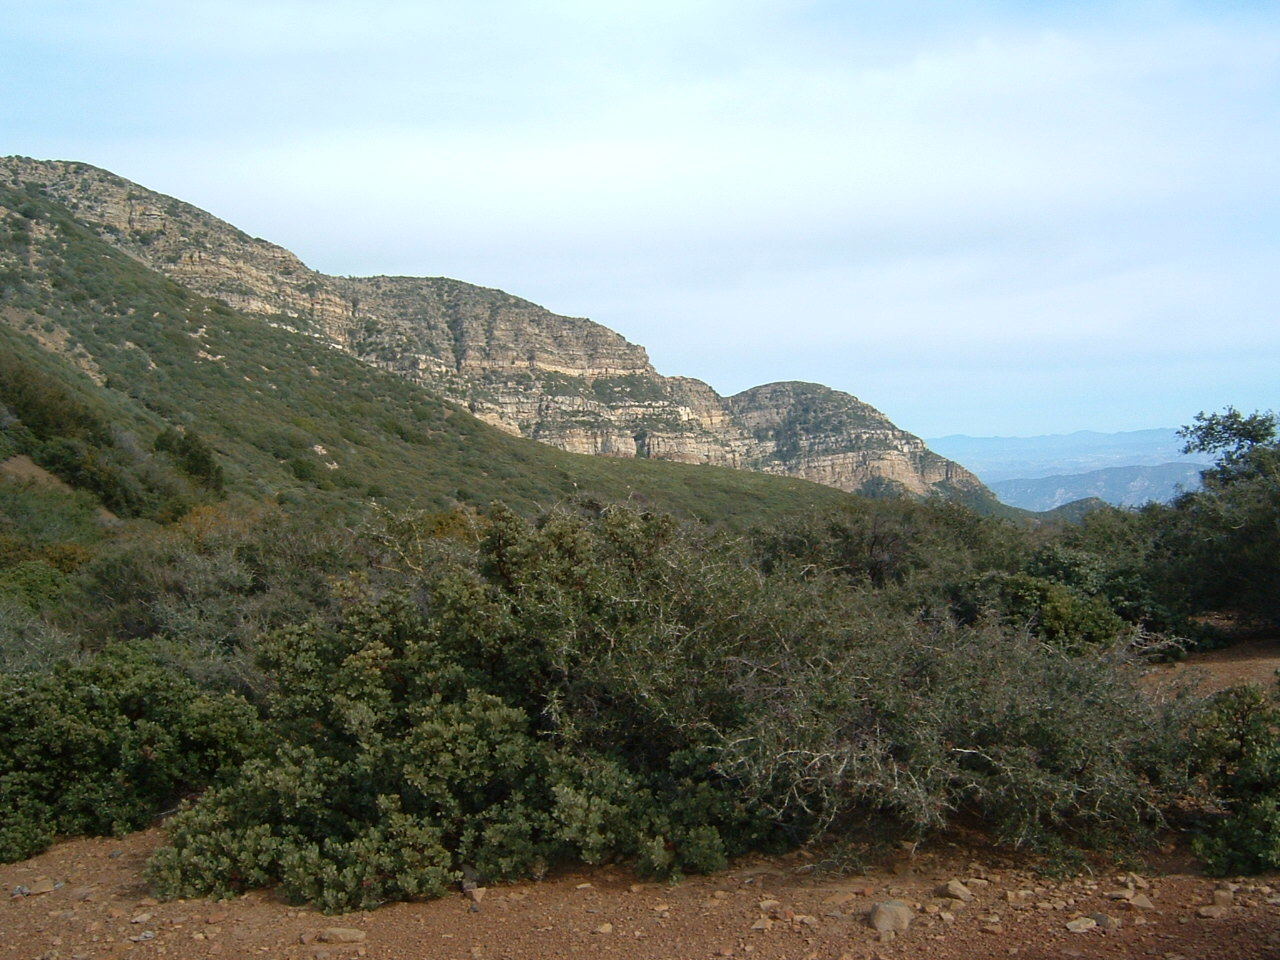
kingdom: Plantae
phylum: Tracheophyta
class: Magnoliopsida
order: Rosales
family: Rhamnaceae
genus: Ceanothus
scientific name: Ceanothus leucodermis
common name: Chaparral whitethorn
